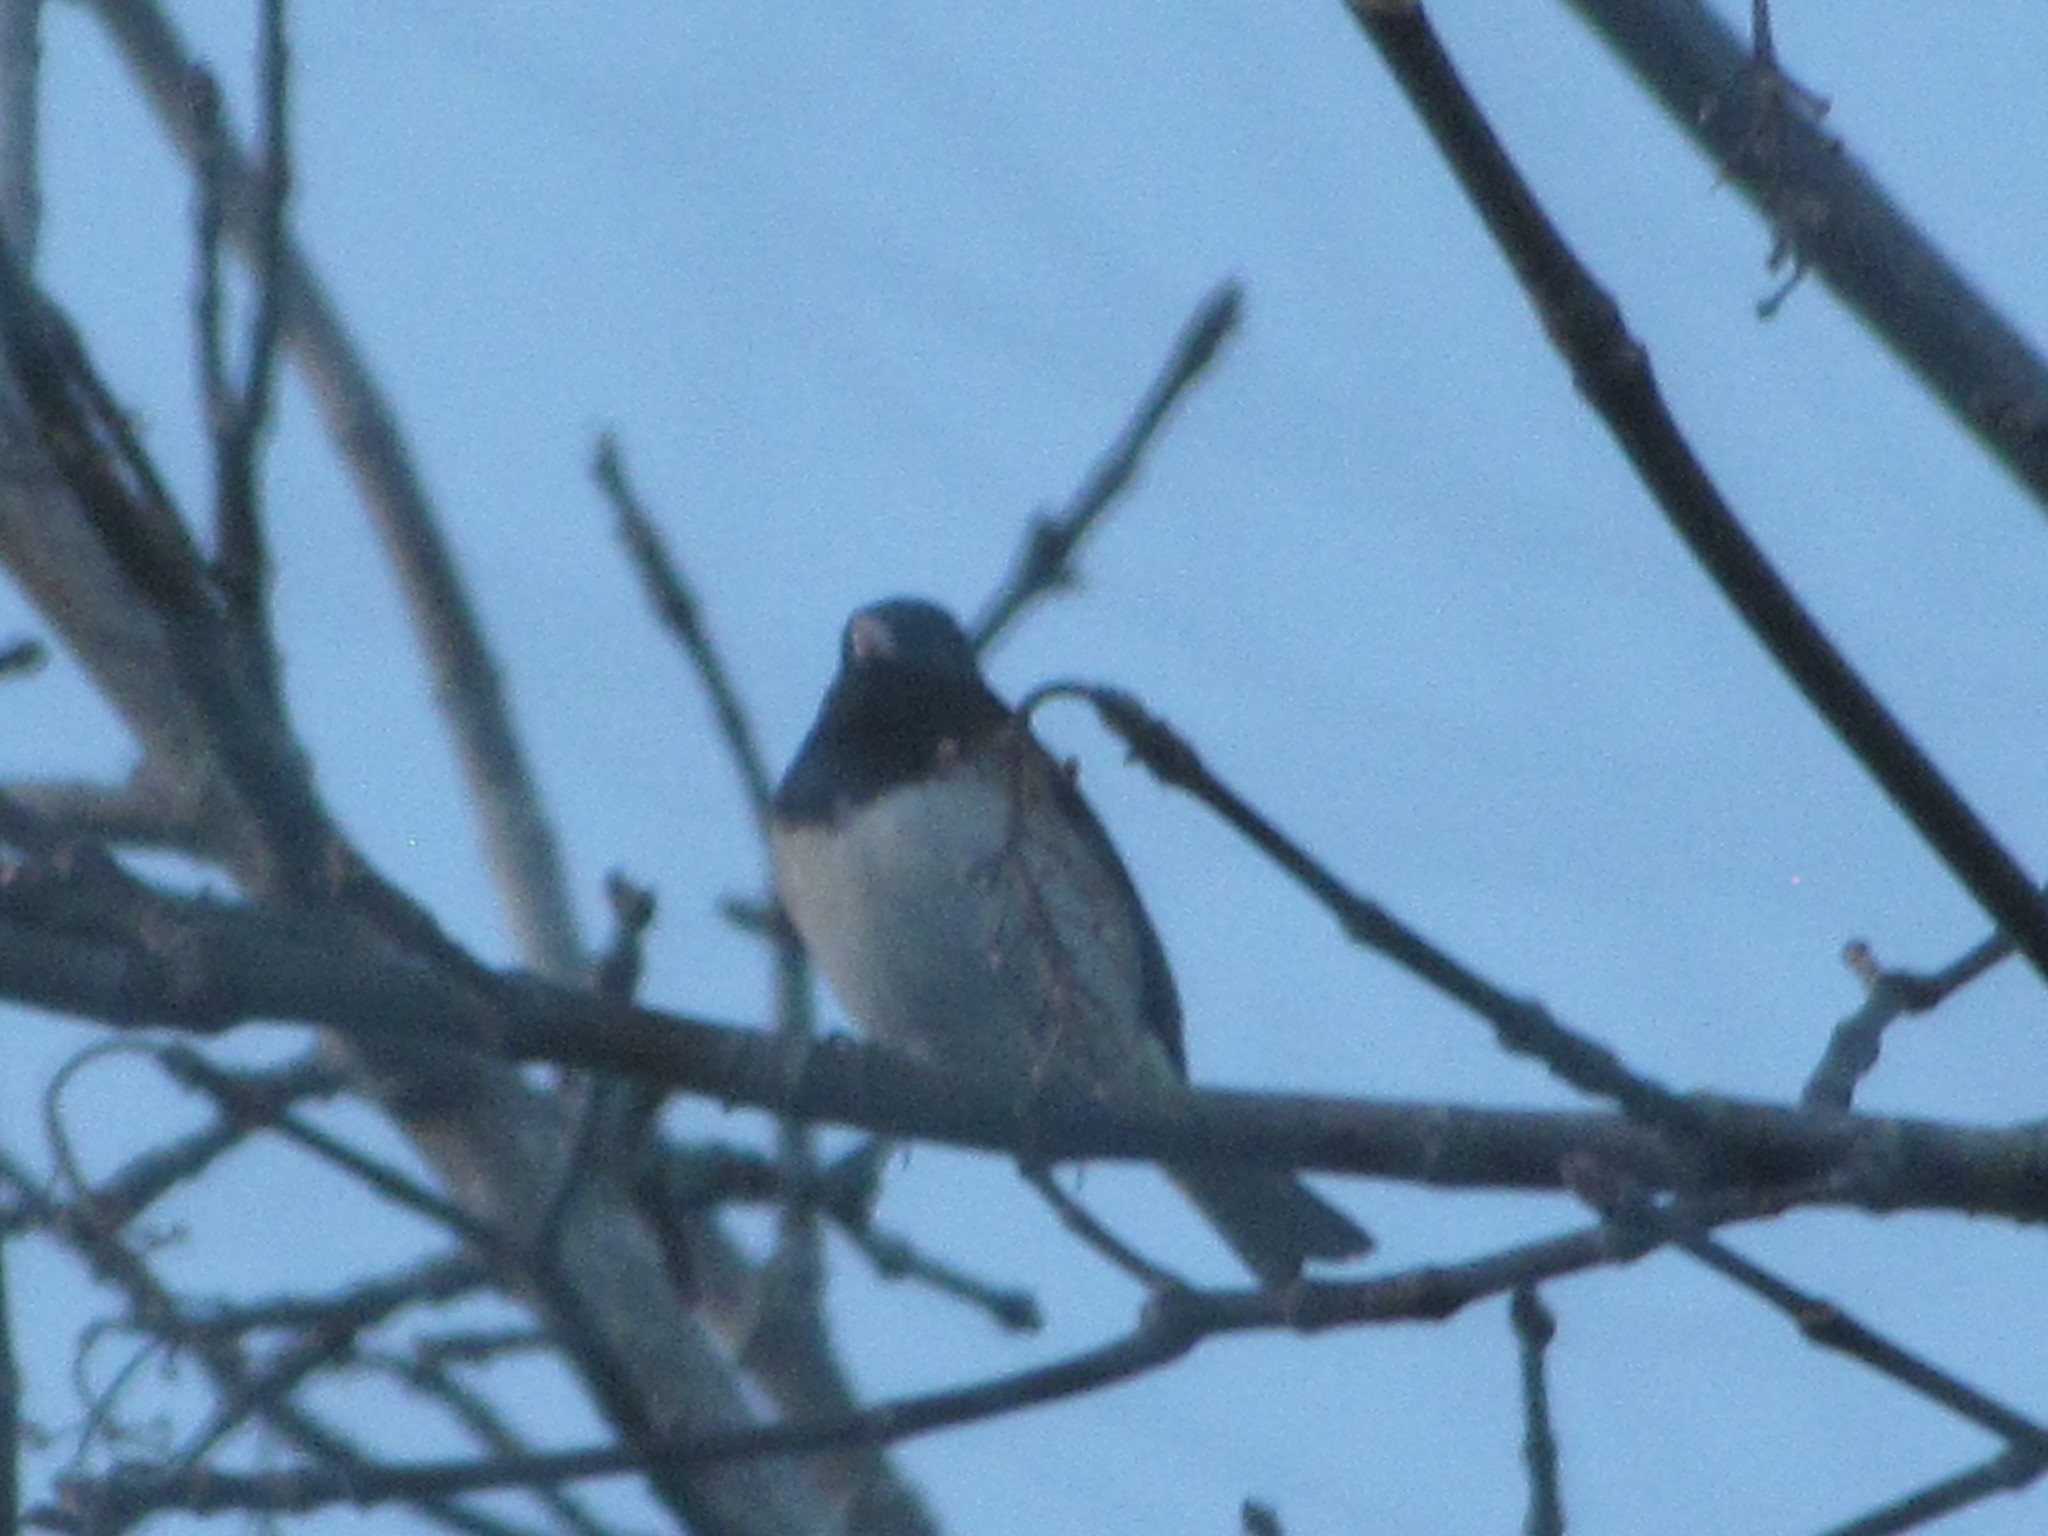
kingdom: Animalia
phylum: Chordata
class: Aves
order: Passeriformes
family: Passerellidae
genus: Junco
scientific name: Junco hyemalis
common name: Dark-eyed junco
